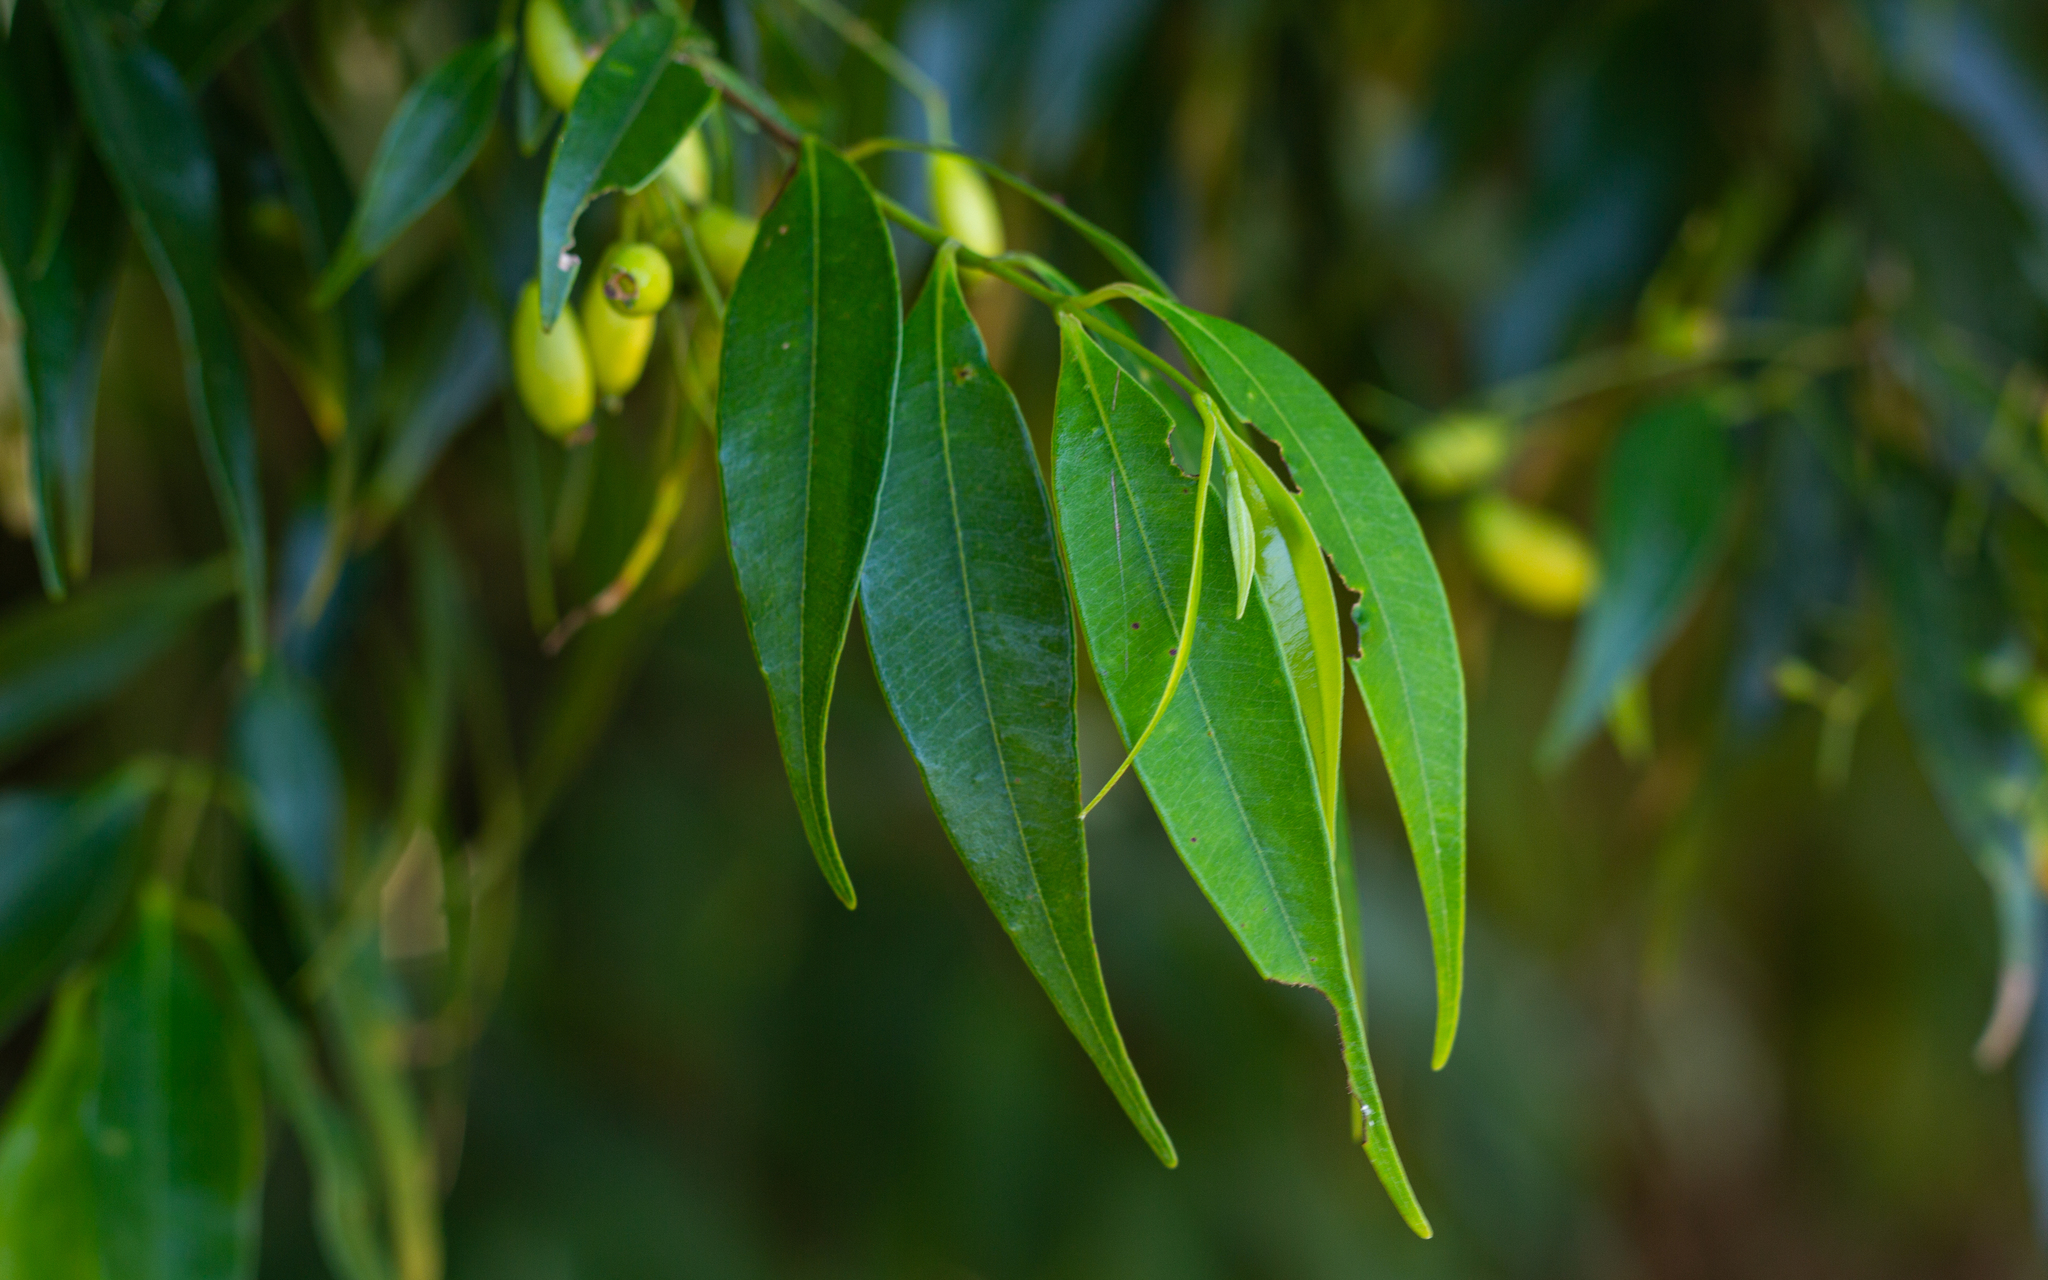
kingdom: Plantae
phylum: Tracheophyta
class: Magnoliopsida
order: Myrtales
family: Myrtaceae
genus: Myrcia
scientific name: Myrcia splendens
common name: Surinam cherry
